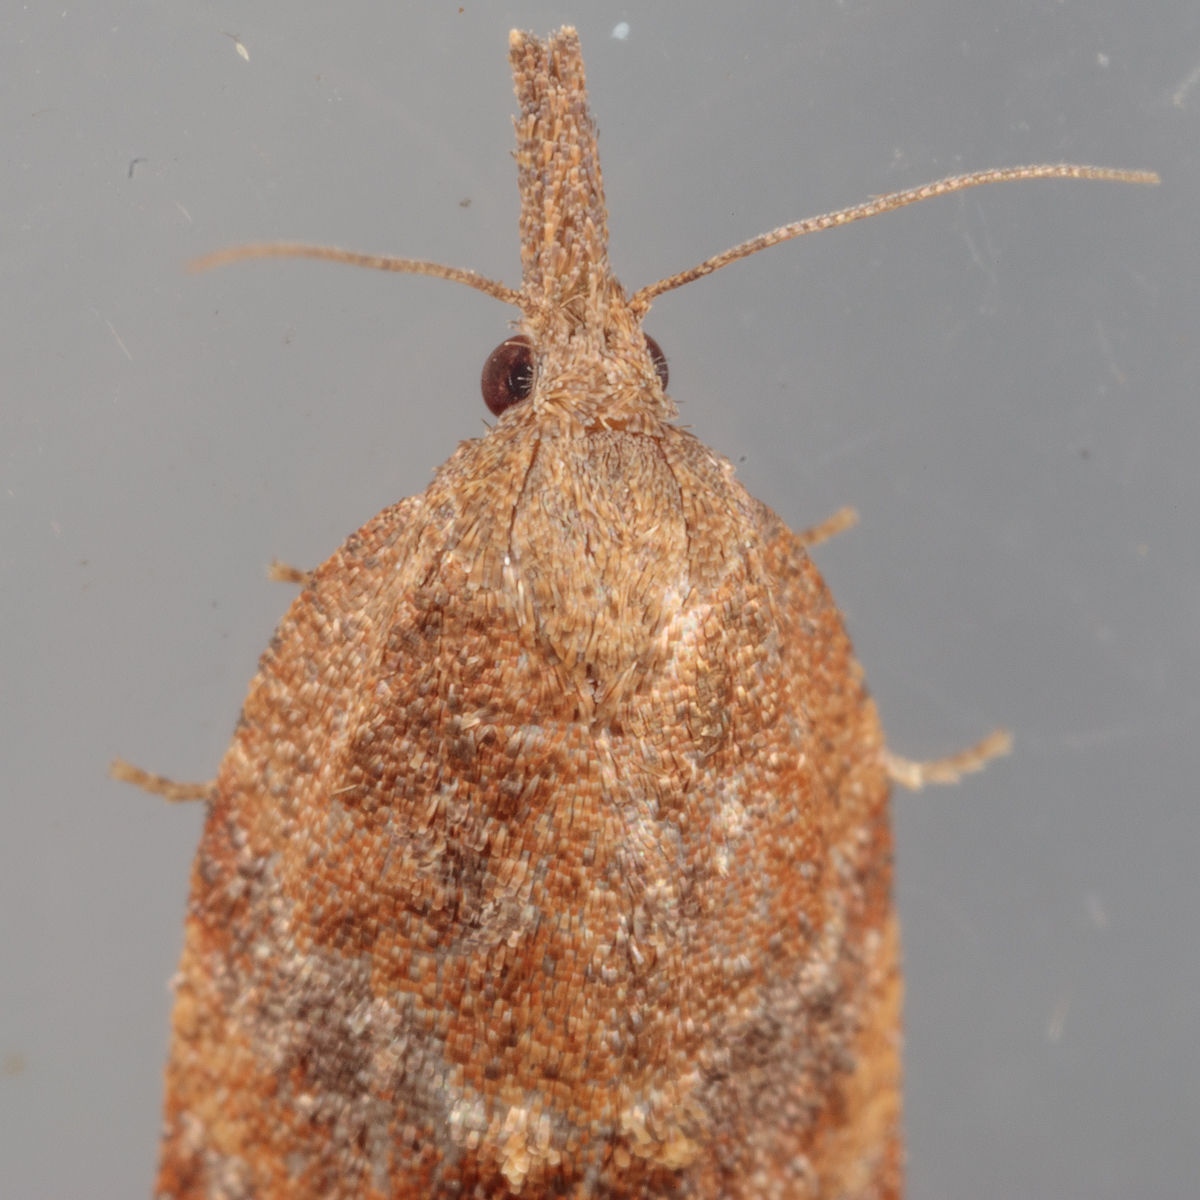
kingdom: Animalia
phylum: Arthropoda
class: Insecta
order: Lepidoptera
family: Tortricidae
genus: Platynota
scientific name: Platynota stultana
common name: Omnivorous leafroller
